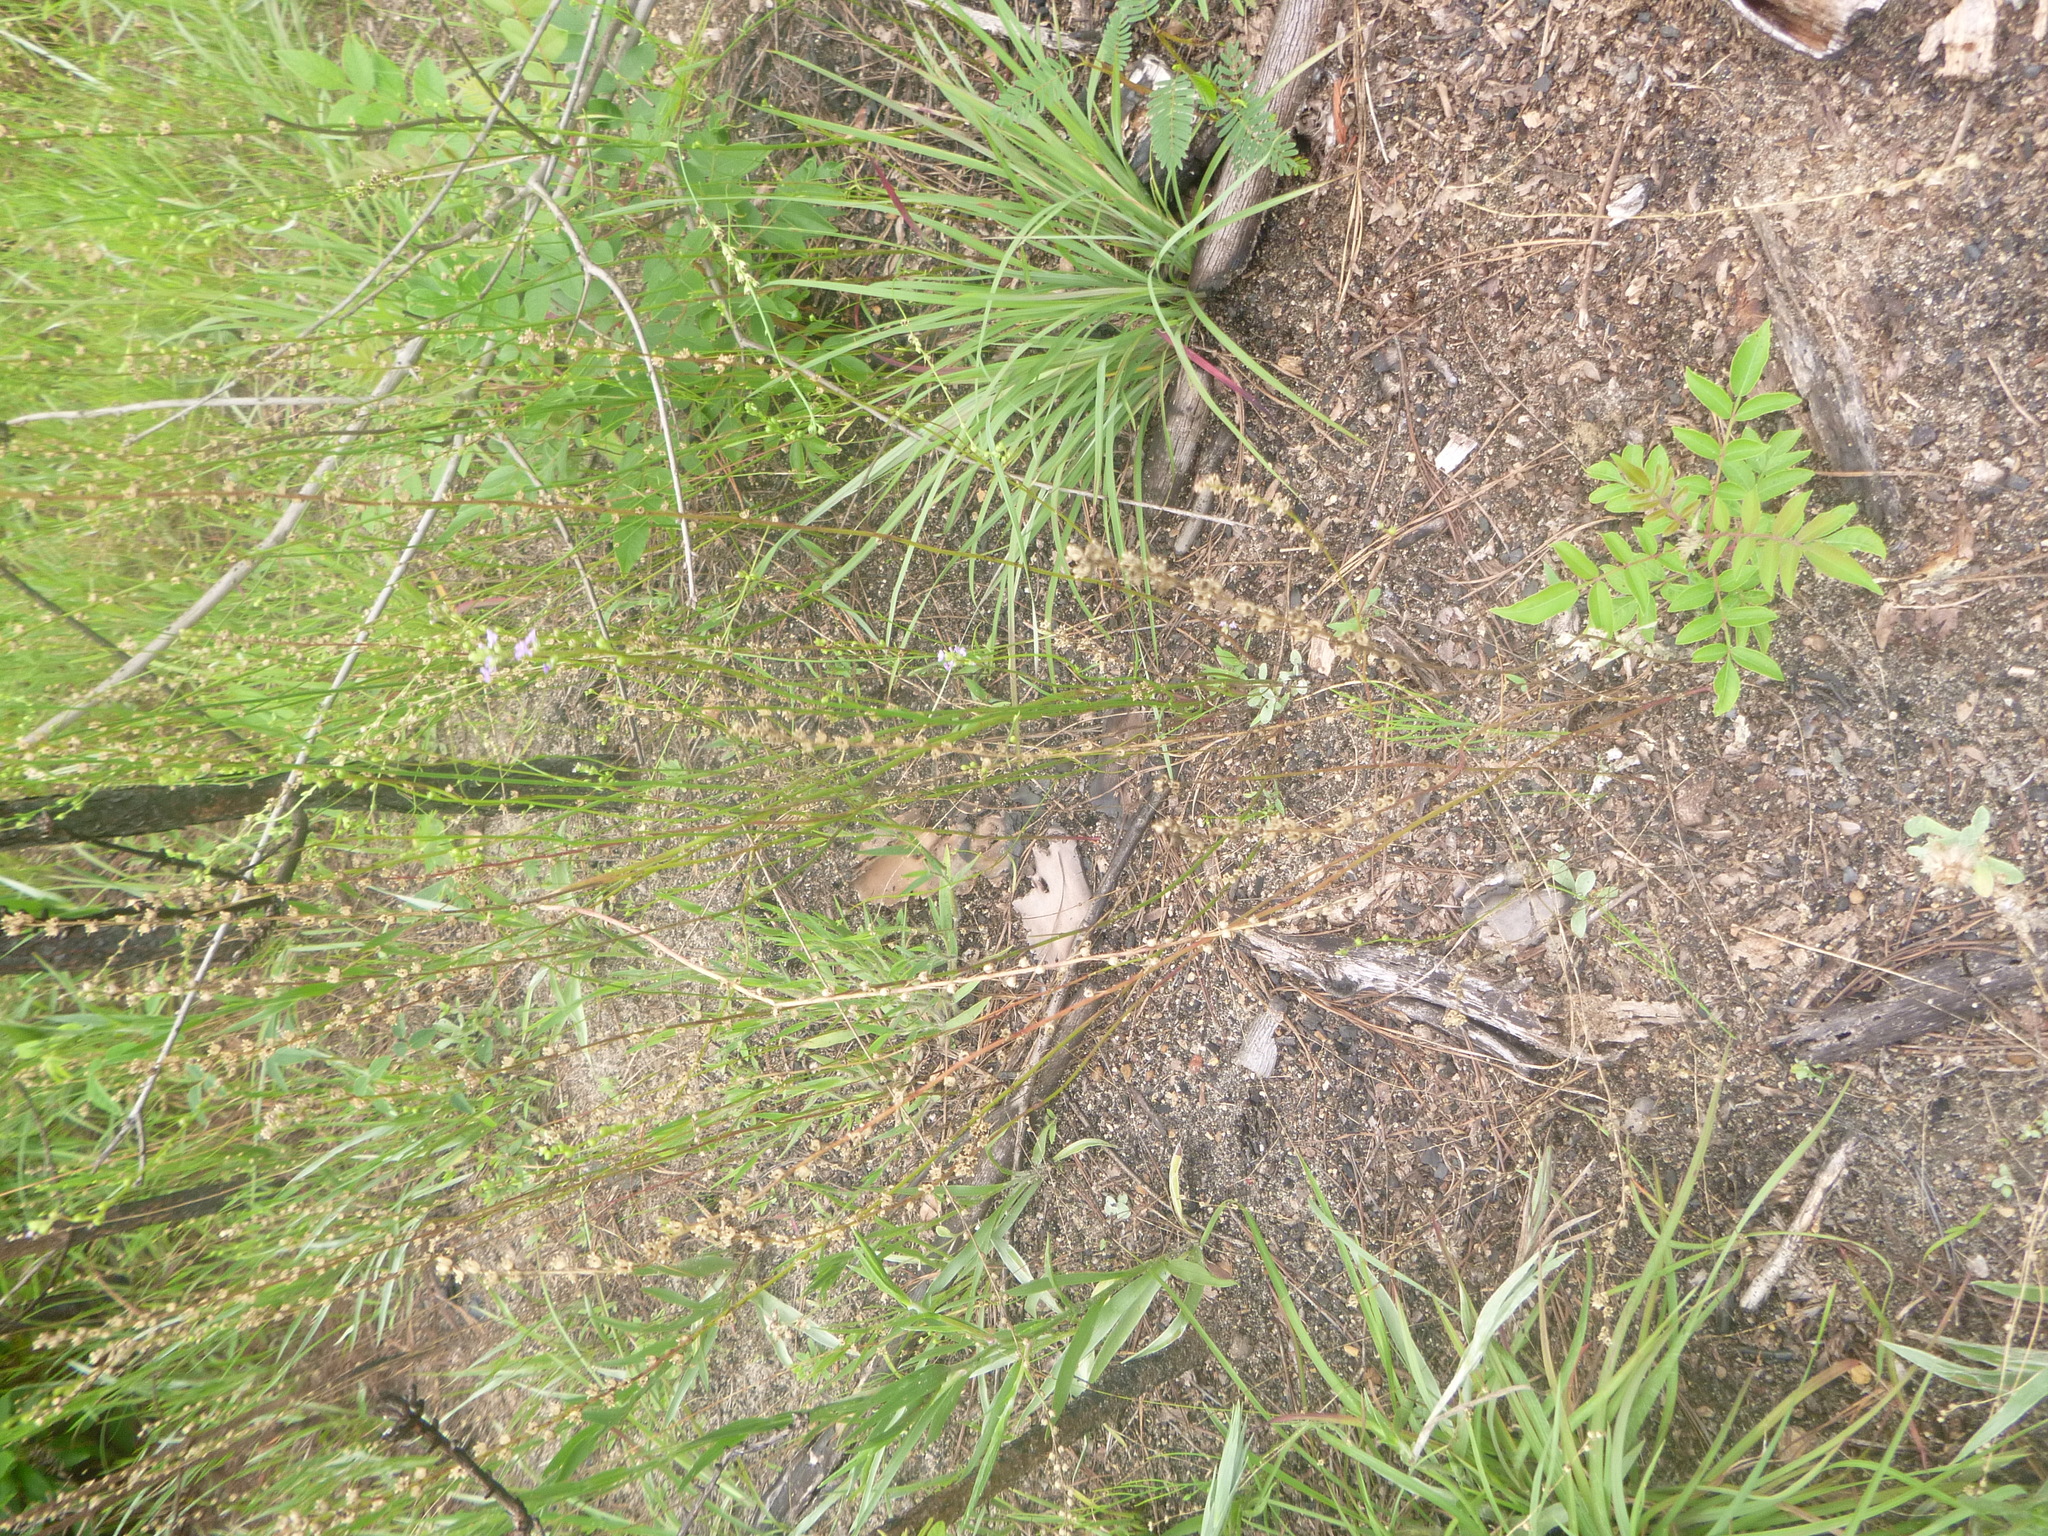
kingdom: Plantae
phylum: Tracheophyta
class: Magnoliopsida
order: Lamiales
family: Plantaginaceae
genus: Nuttallanthus
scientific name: Nuttallanthus canadensis
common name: Blue toadflax
